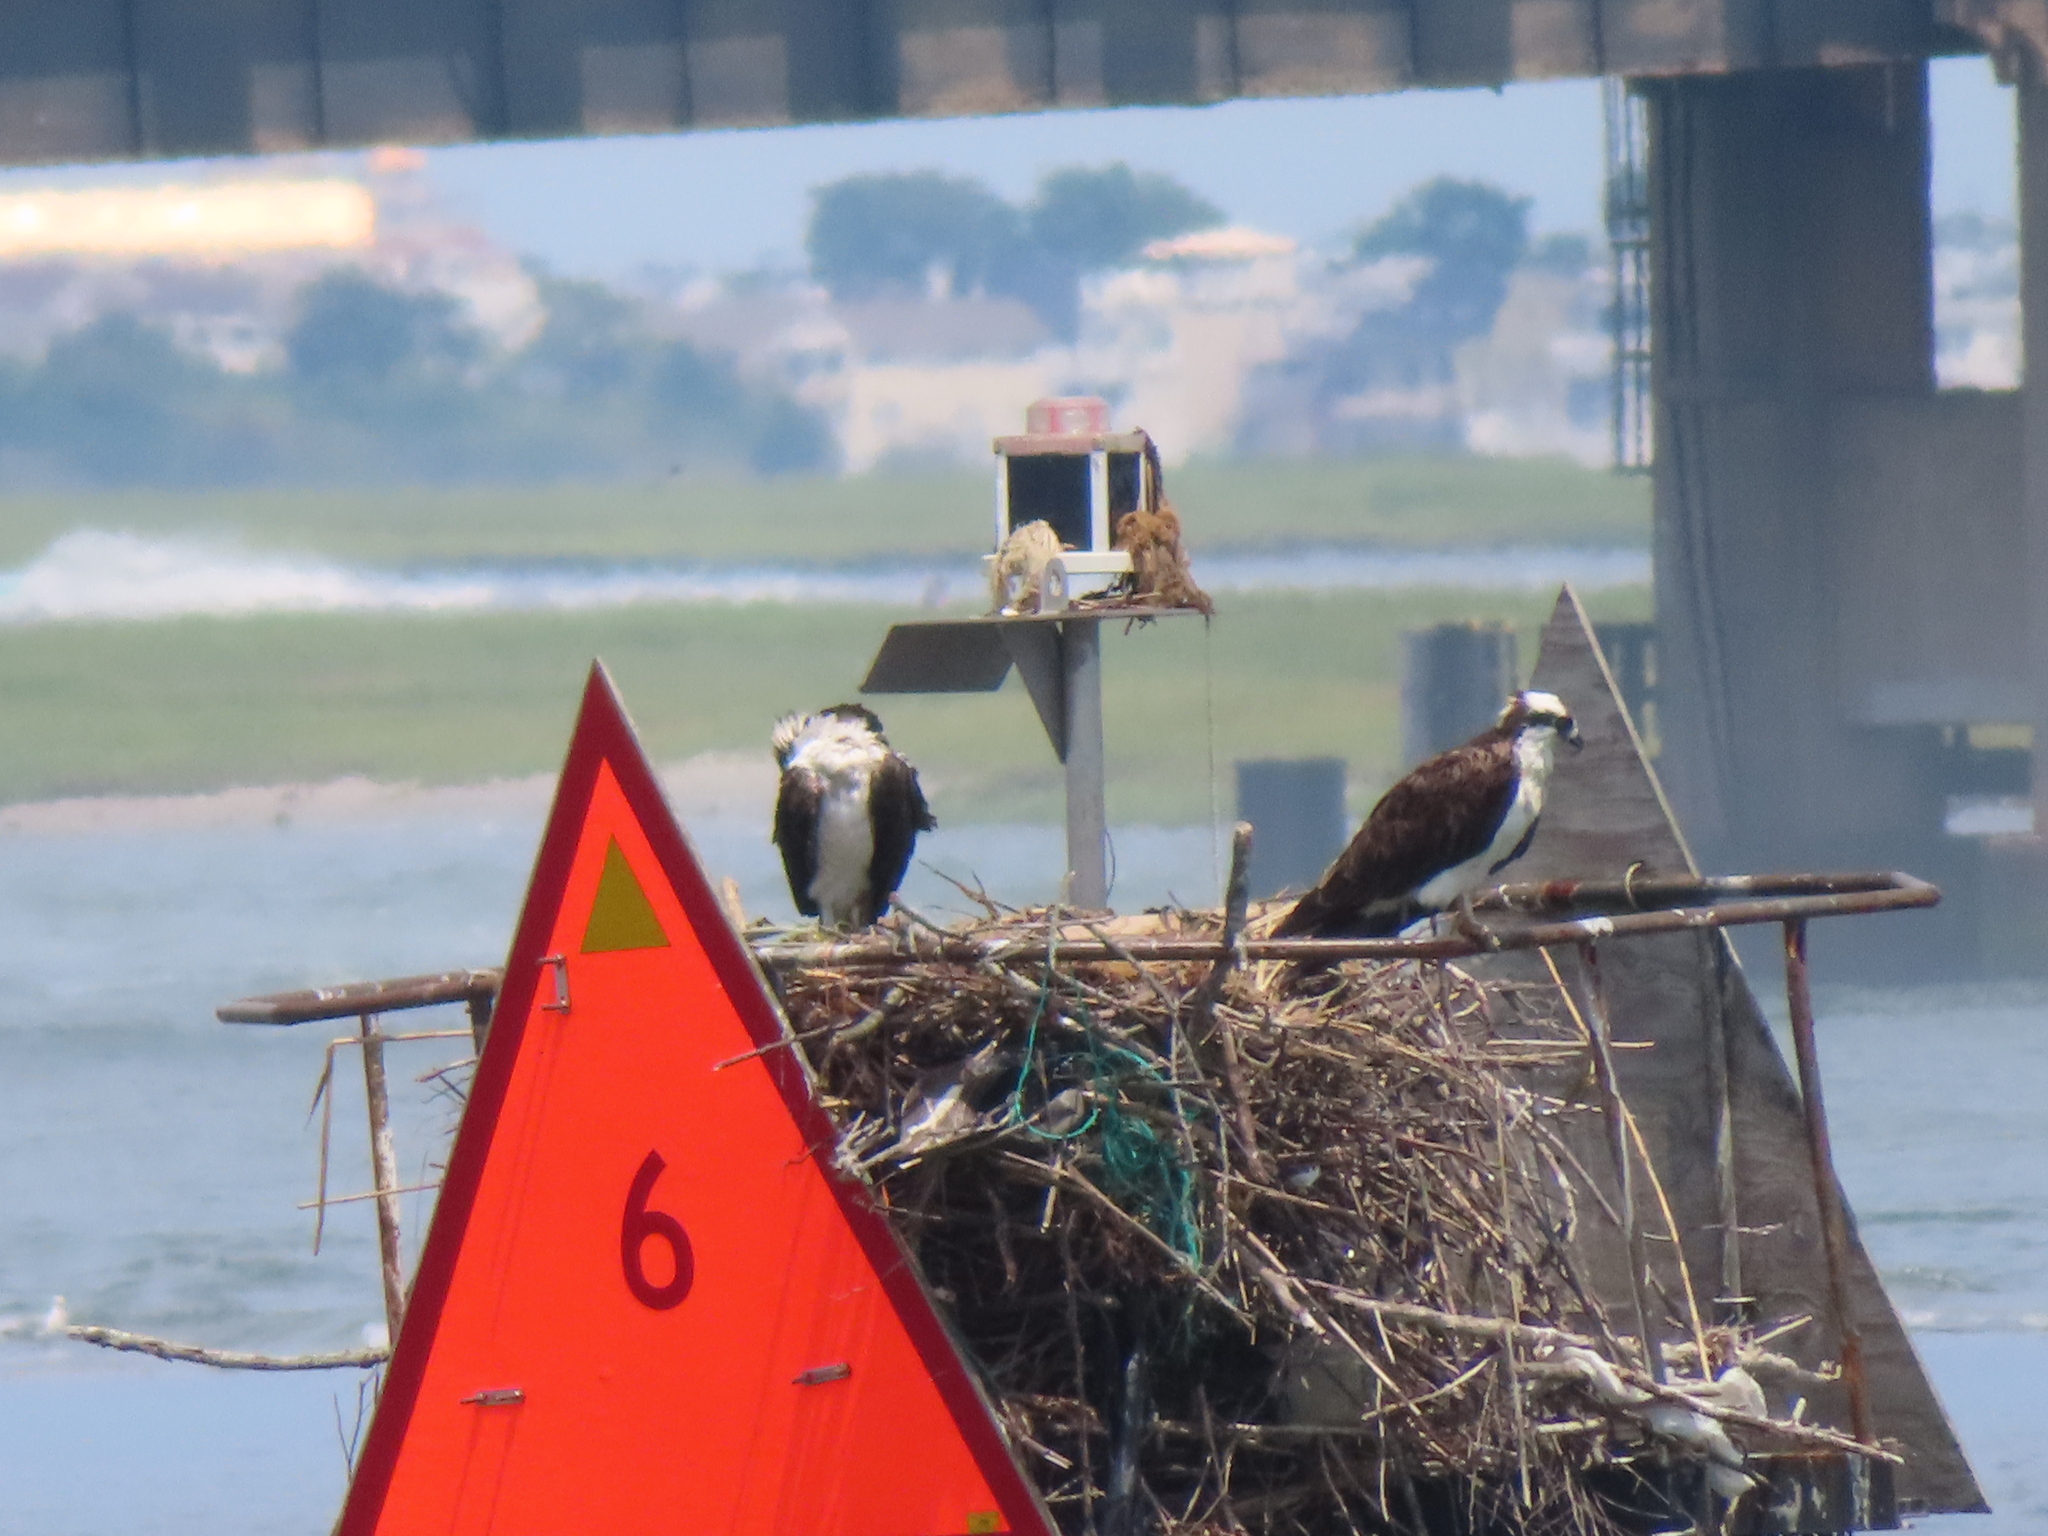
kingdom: Animalia
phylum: Chordata
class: Aves
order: Accipitriformes
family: Pandionidae
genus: Pandion
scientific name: Pandion haliaetus
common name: Osprey
